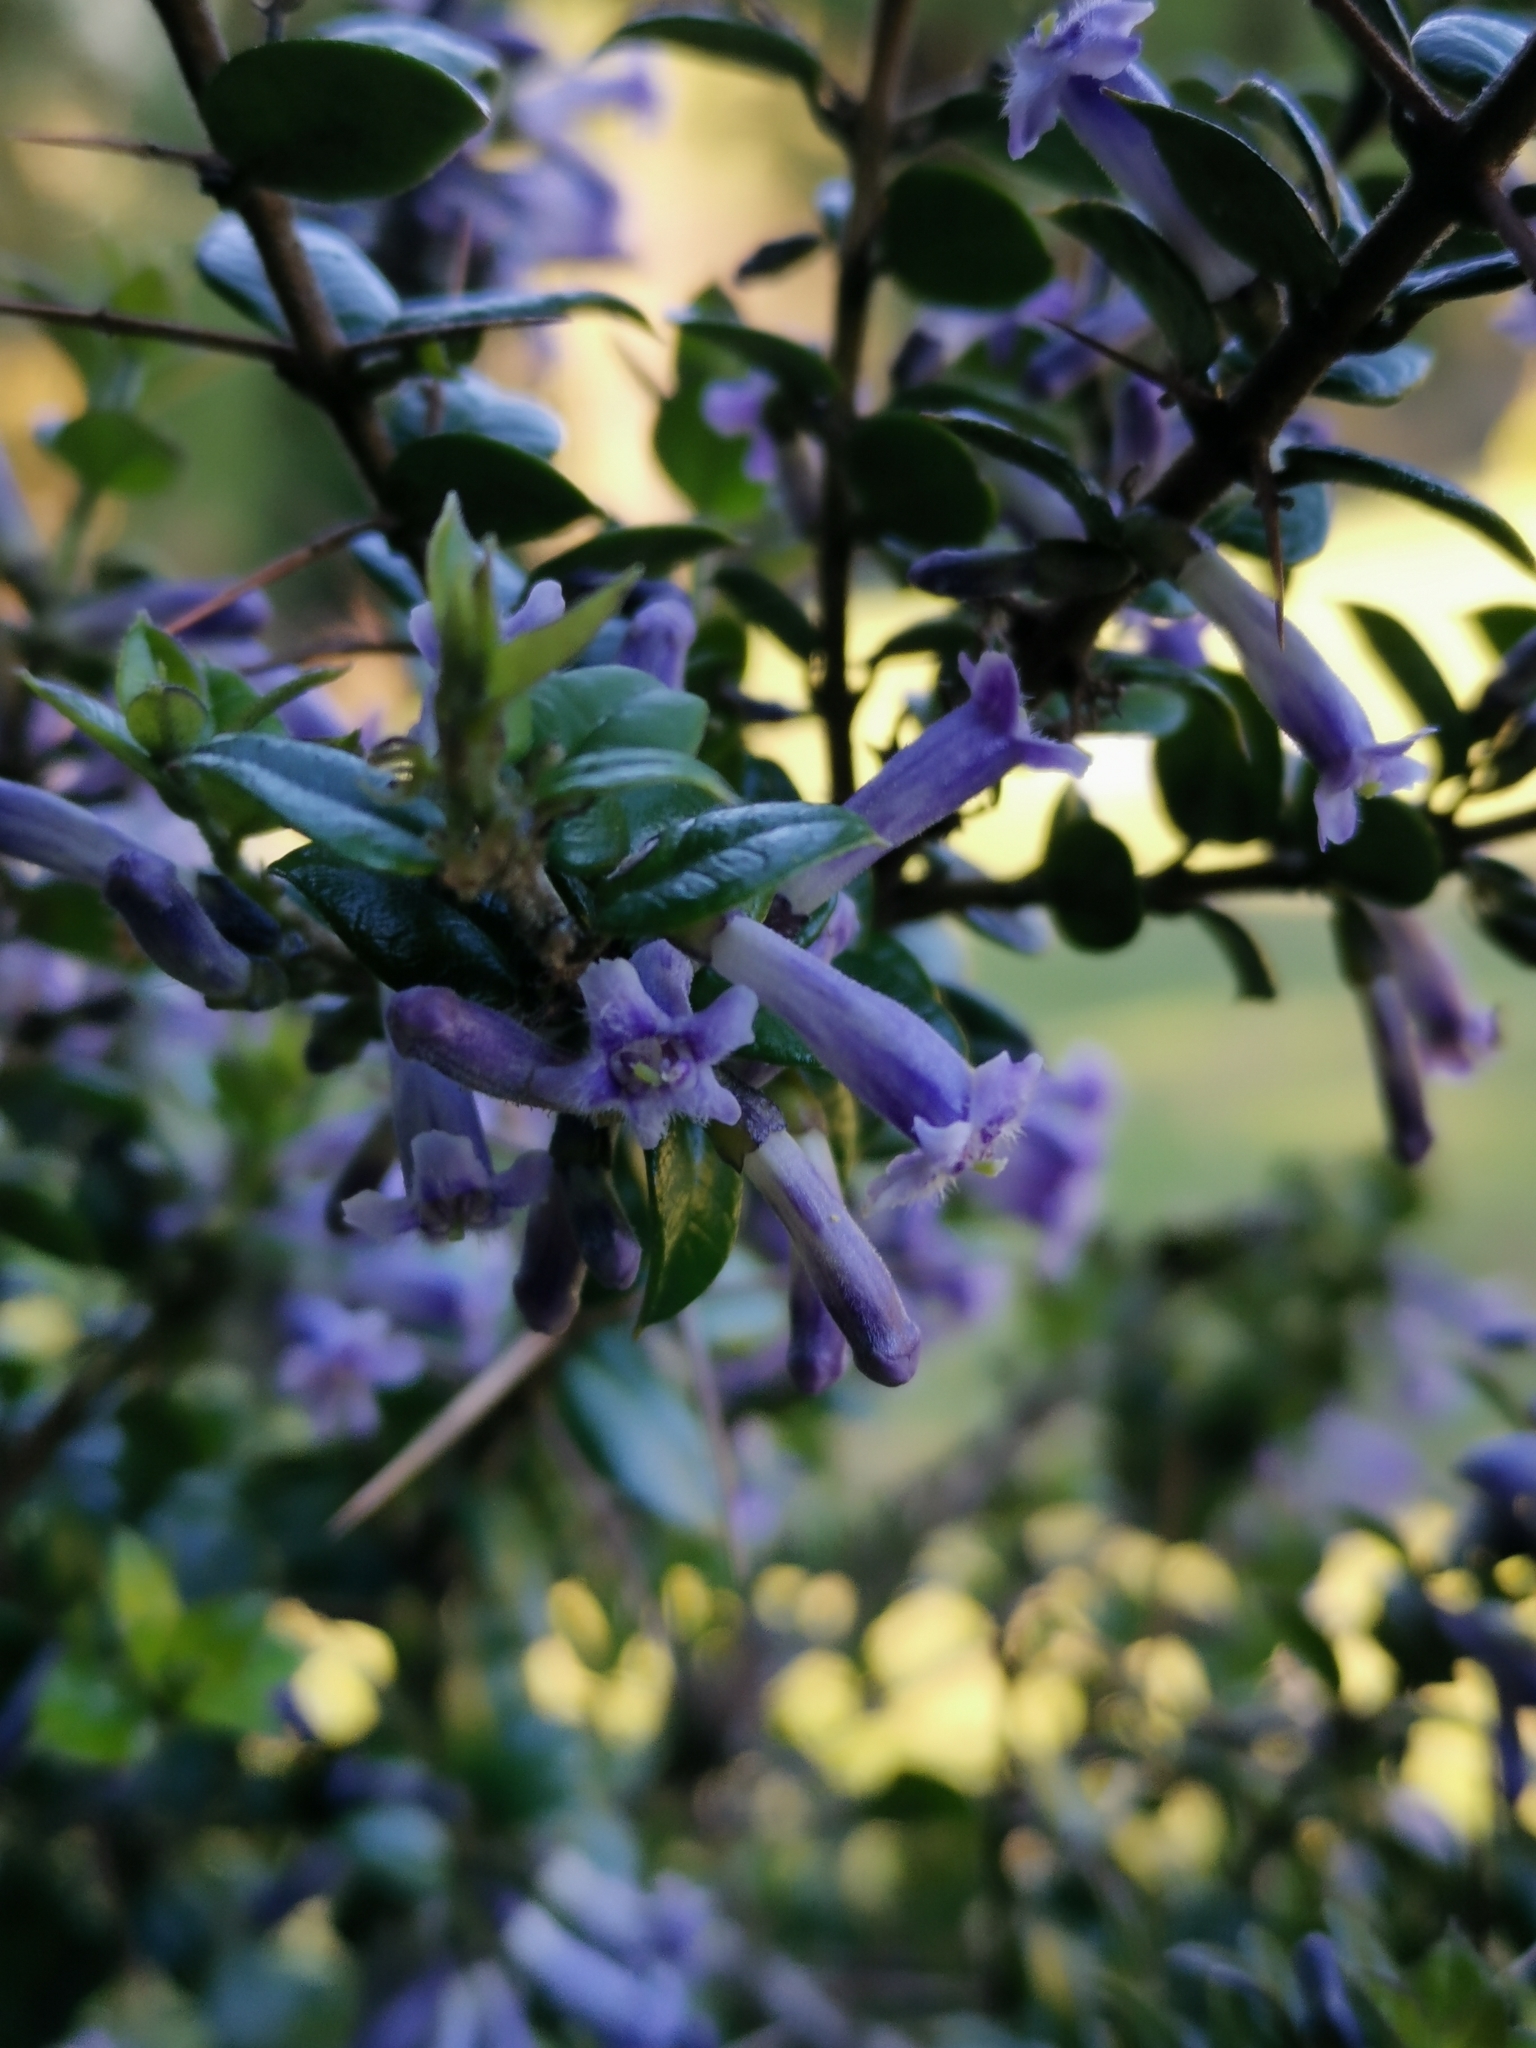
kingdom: Plantae
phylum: Tracheophyta
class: Magnoliopsida
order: Lamiales
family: Verbenaceae
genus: Rhaphithamnus
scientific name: Rhaphithamnus spinosus
